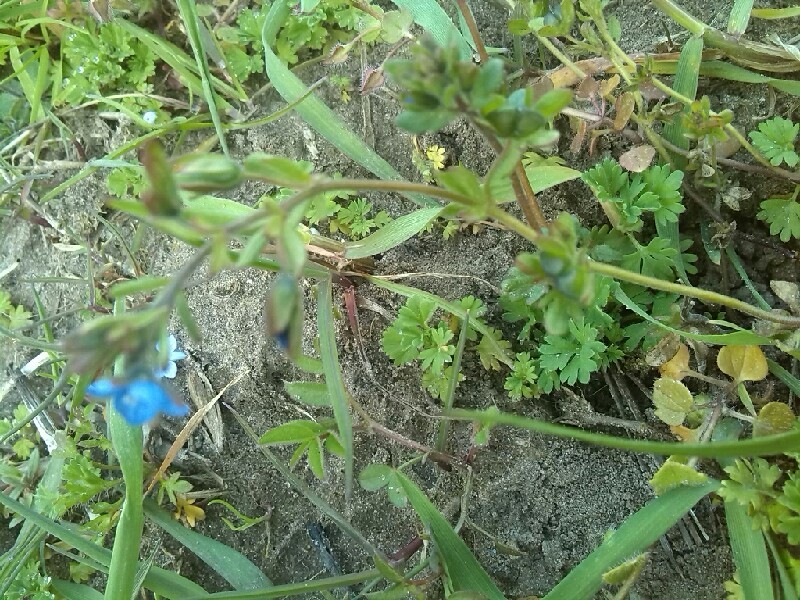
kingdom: Plantae
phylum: Tracheophyta
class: Magnoliopsida
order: Lamiales
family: Plantaginaceae
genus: Veronica
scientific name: Veronica triphyllos
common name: Fingered speedwell
